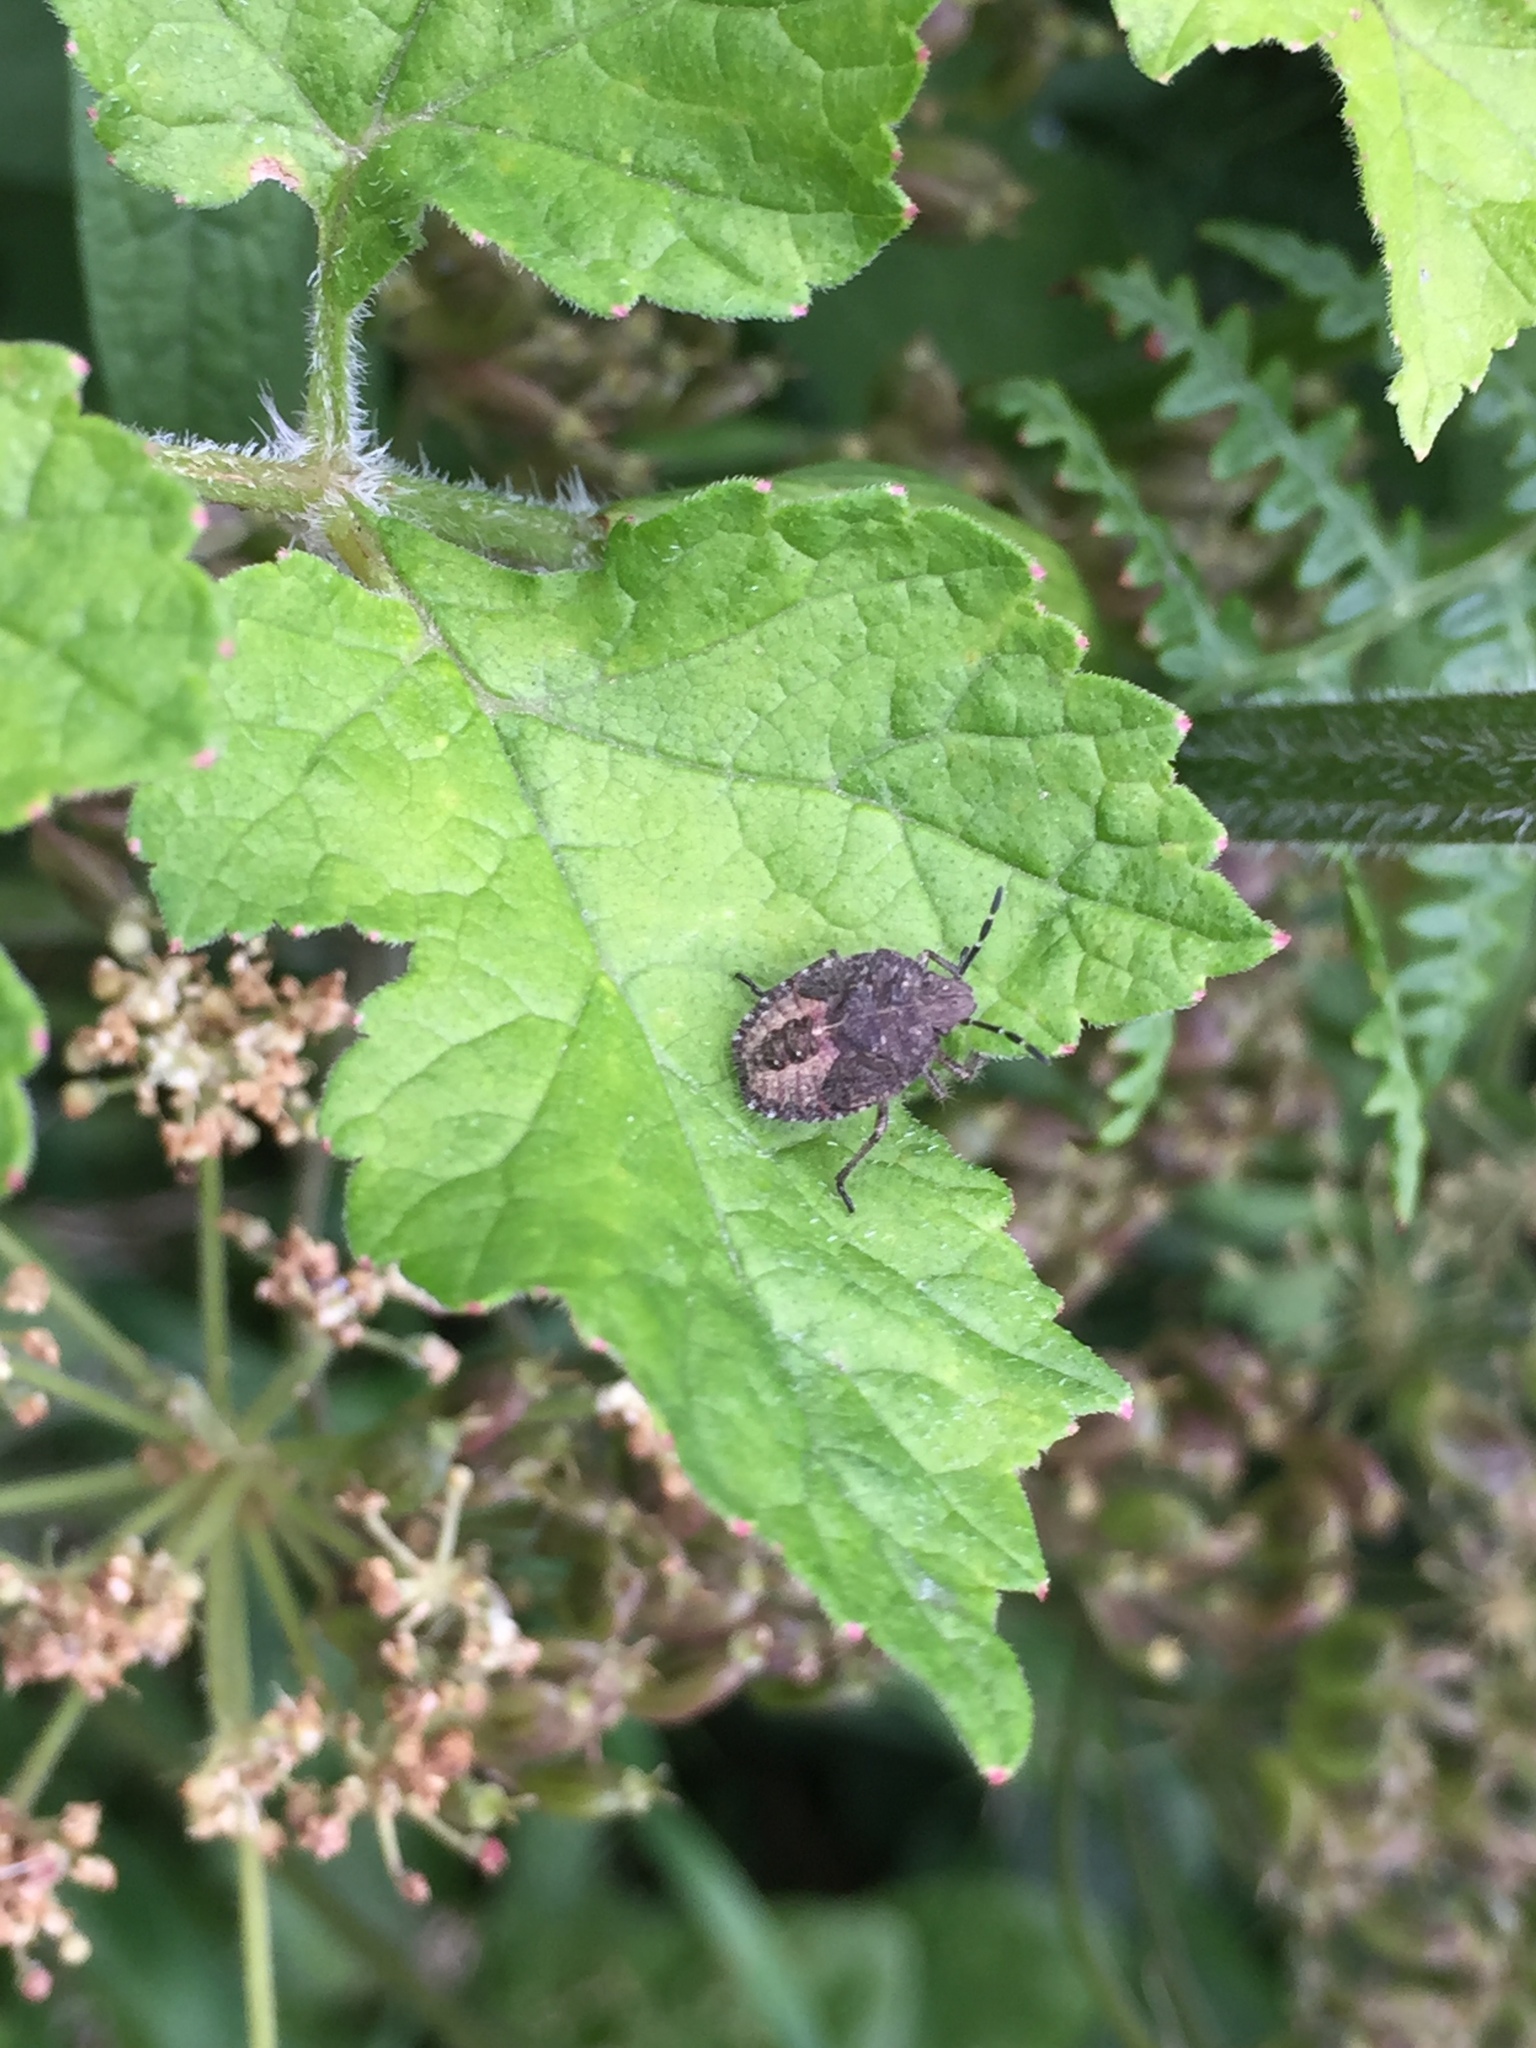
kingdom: Animalia
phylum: Arthropoda
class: Insecta
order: Hemiptera
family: Pentatomidae
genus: Dolycoris
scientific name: Dolycoris baccarum
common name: Sloe bug
